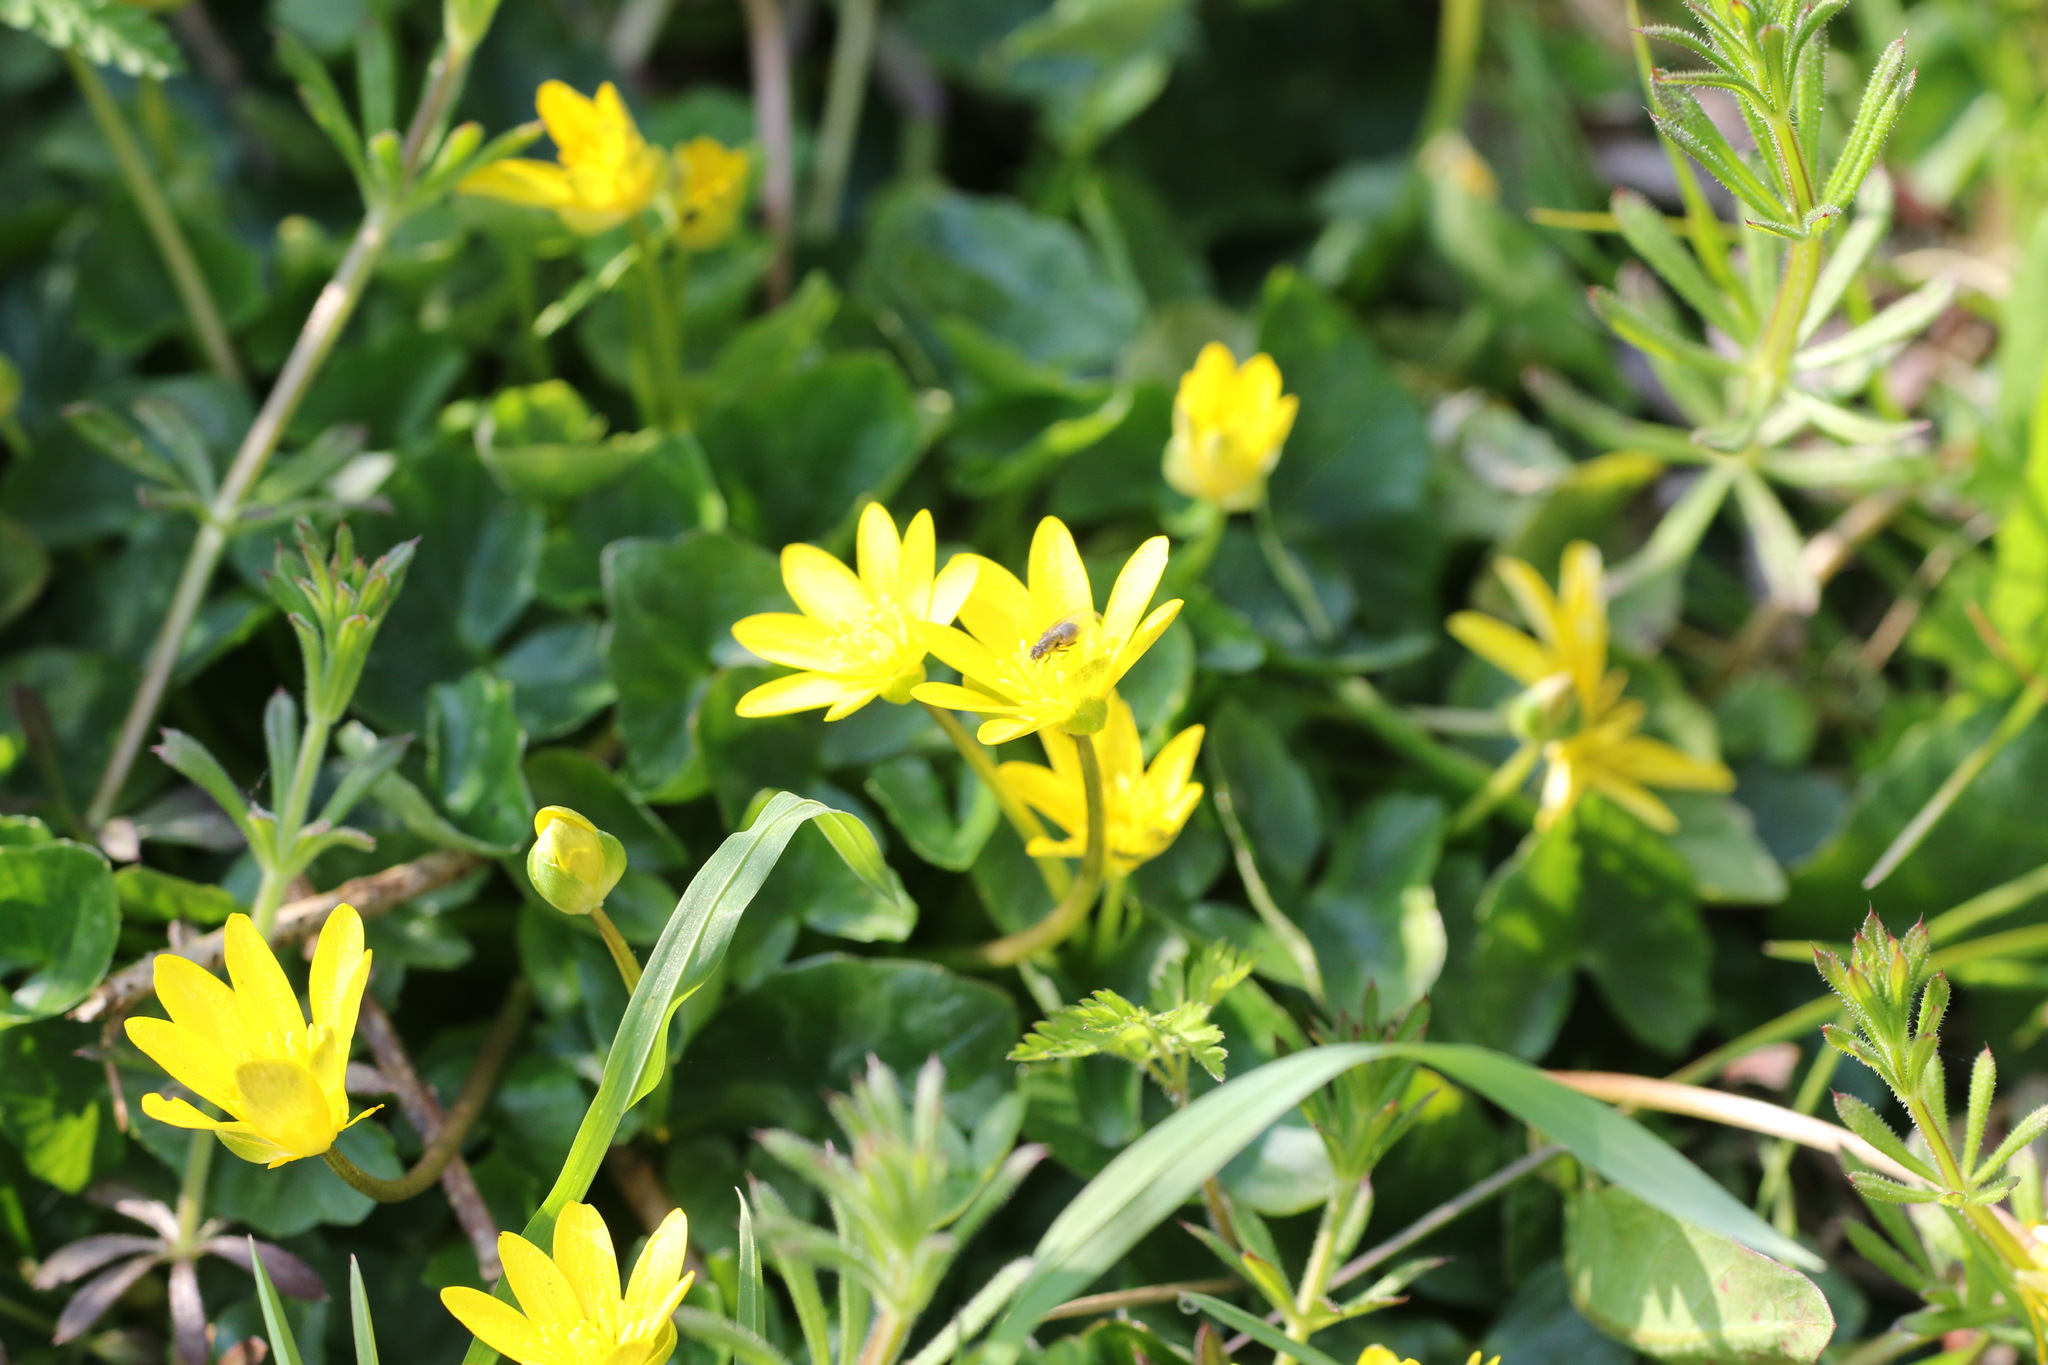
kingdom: Plantae
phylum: Tracheophyta
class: Magnoliopsida
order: Ranunculales
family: Ranunculaceae
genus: Ficaria
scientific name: Ficaria verna
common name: Lesser celandine
